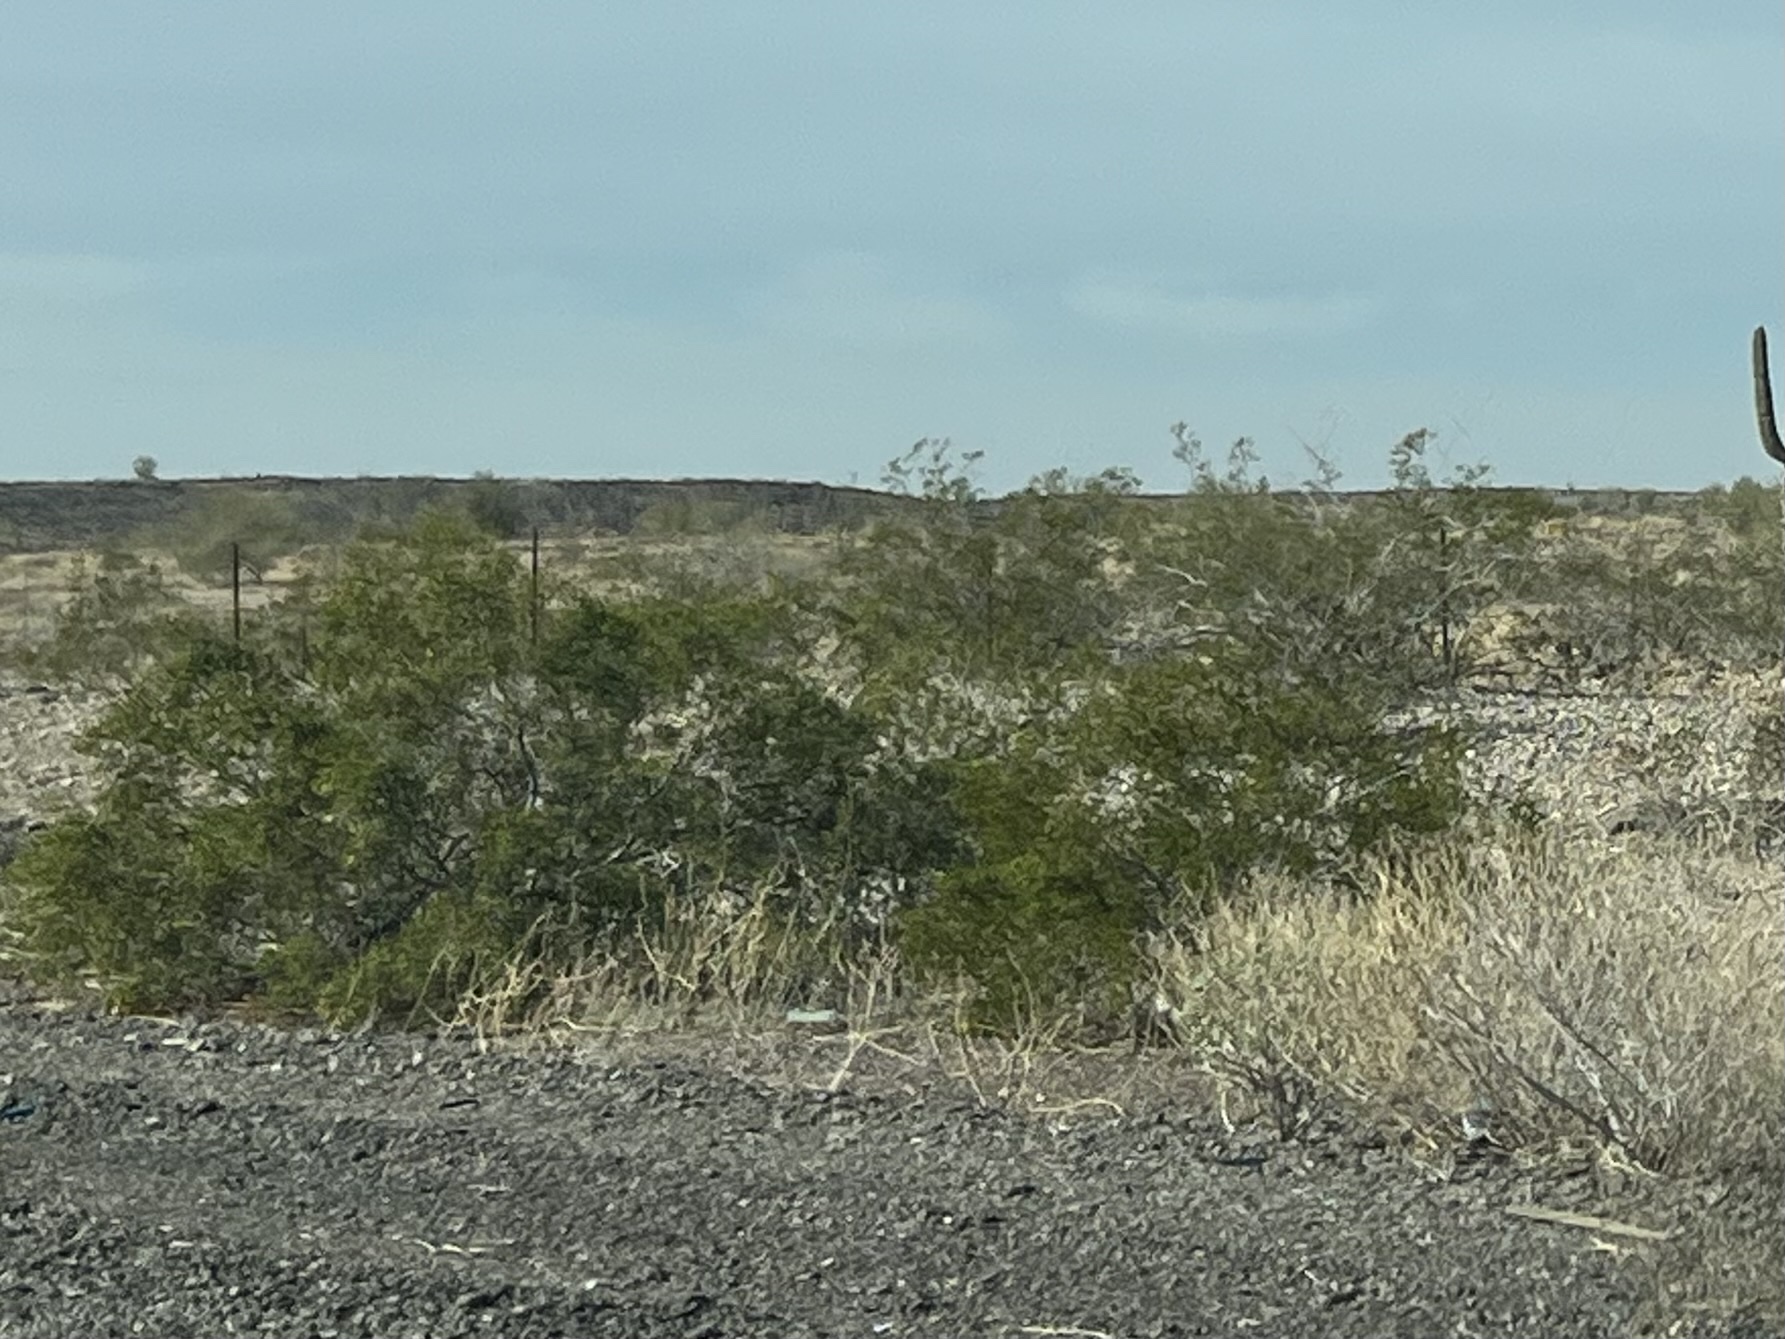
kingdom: Plantae
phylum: Tracheophyta
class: Magnoliopsida
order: Zygophyllales
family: Zygophyllaceae
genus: Larrea
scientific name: Larrea tridentata
